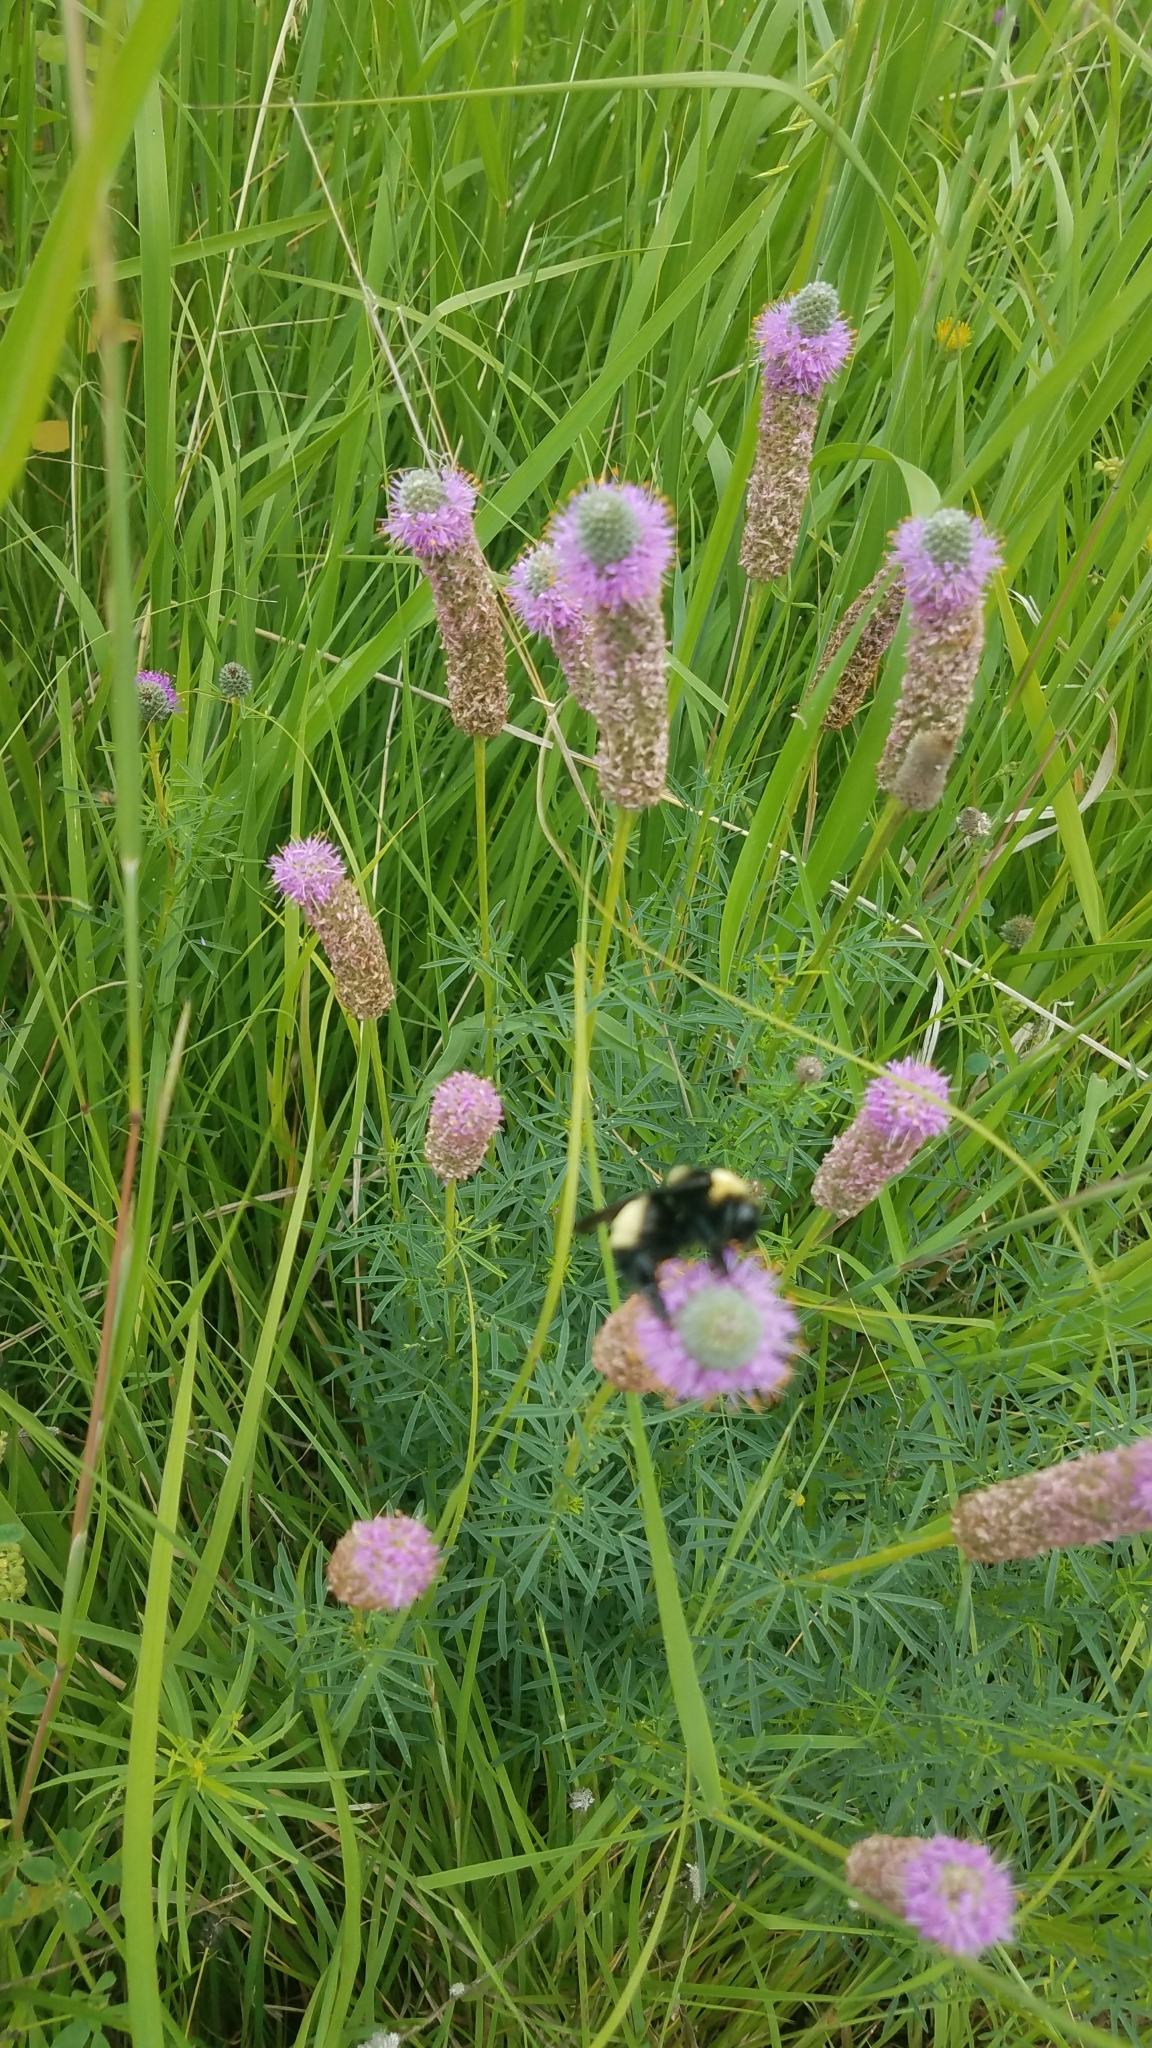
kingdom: Animalia
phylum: Arthropoda
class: Insecta
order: Hymenoptera
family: Apidae
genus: Bombus
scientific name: Bombus auricomus
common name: Black and gold bumble bee
